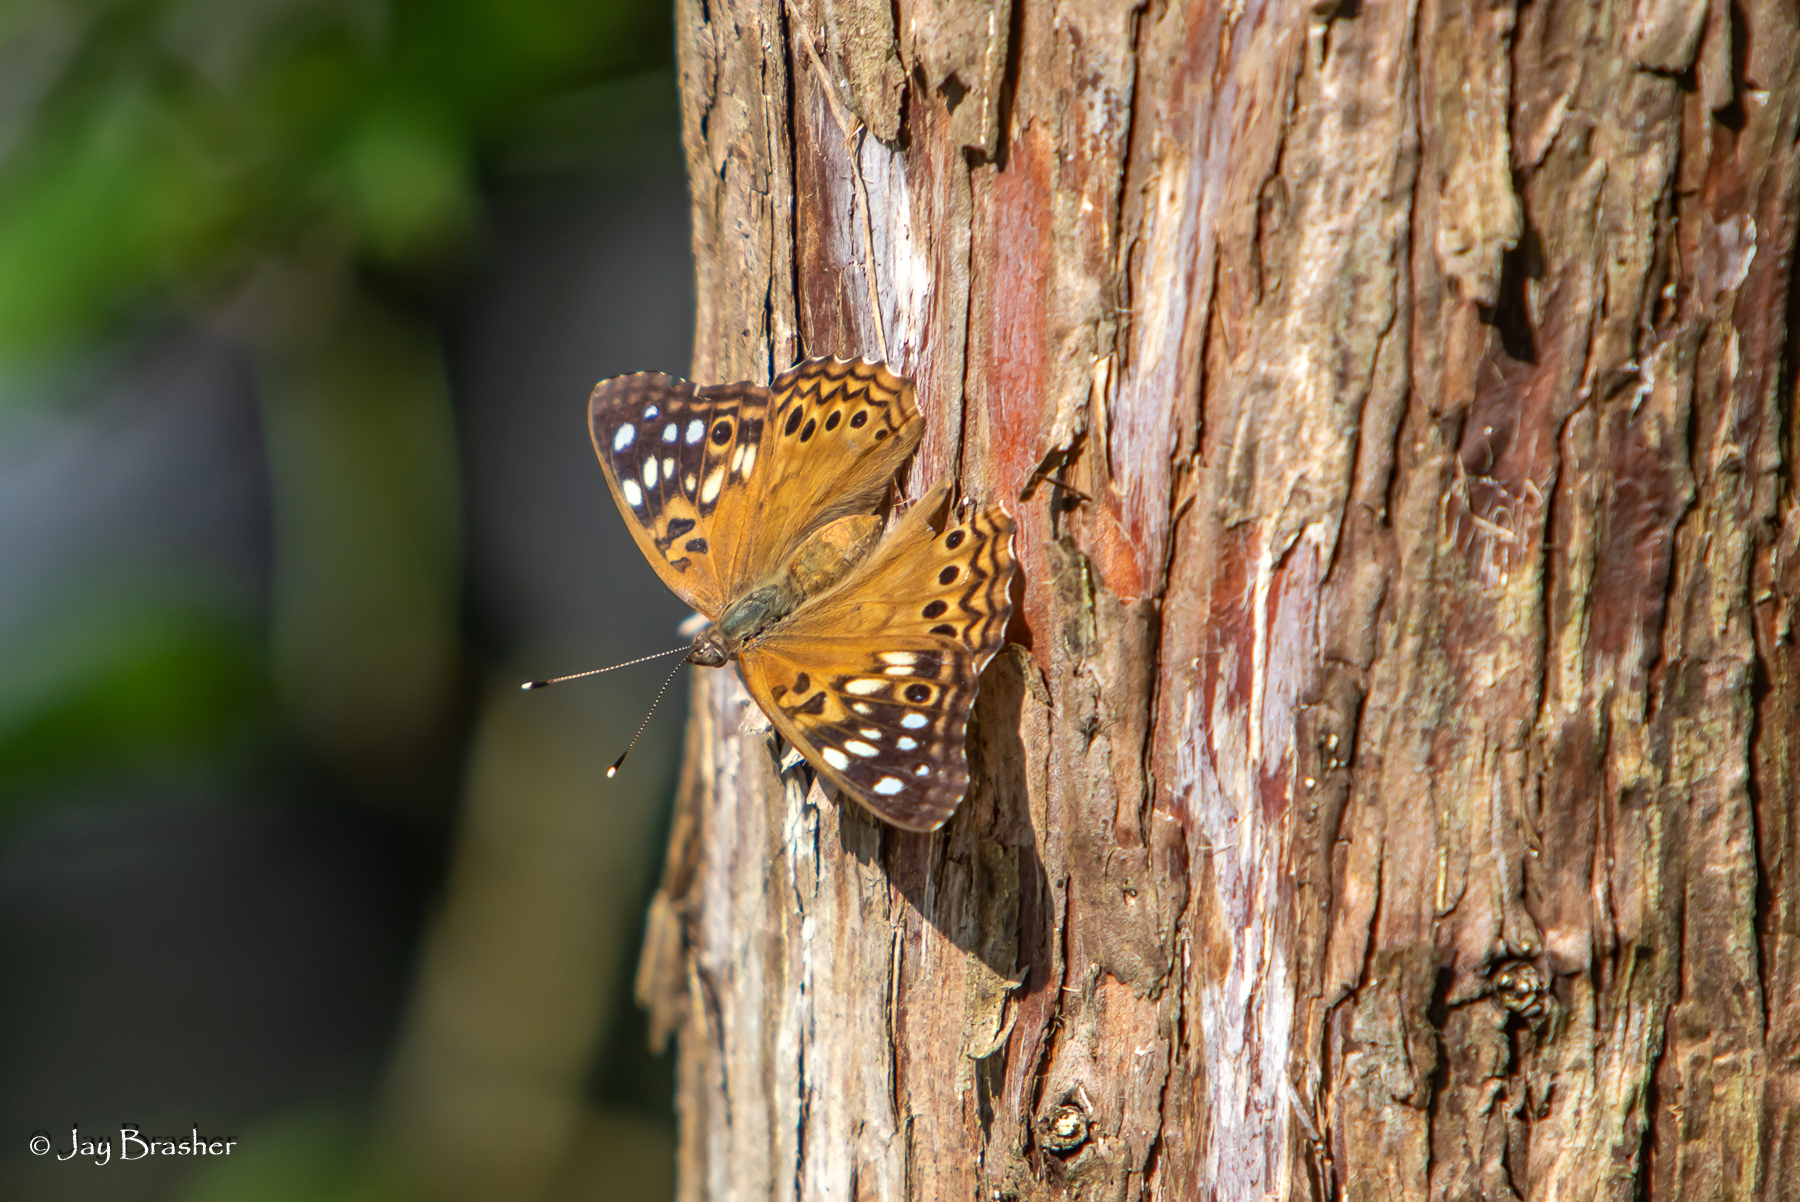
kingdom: Animalia
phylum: Arthropoda
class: Insecta
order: Lepidoptera
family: Nymphalidae
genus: Asterocampa
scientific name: Asterocampa celtis
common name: Hackberry emperor
